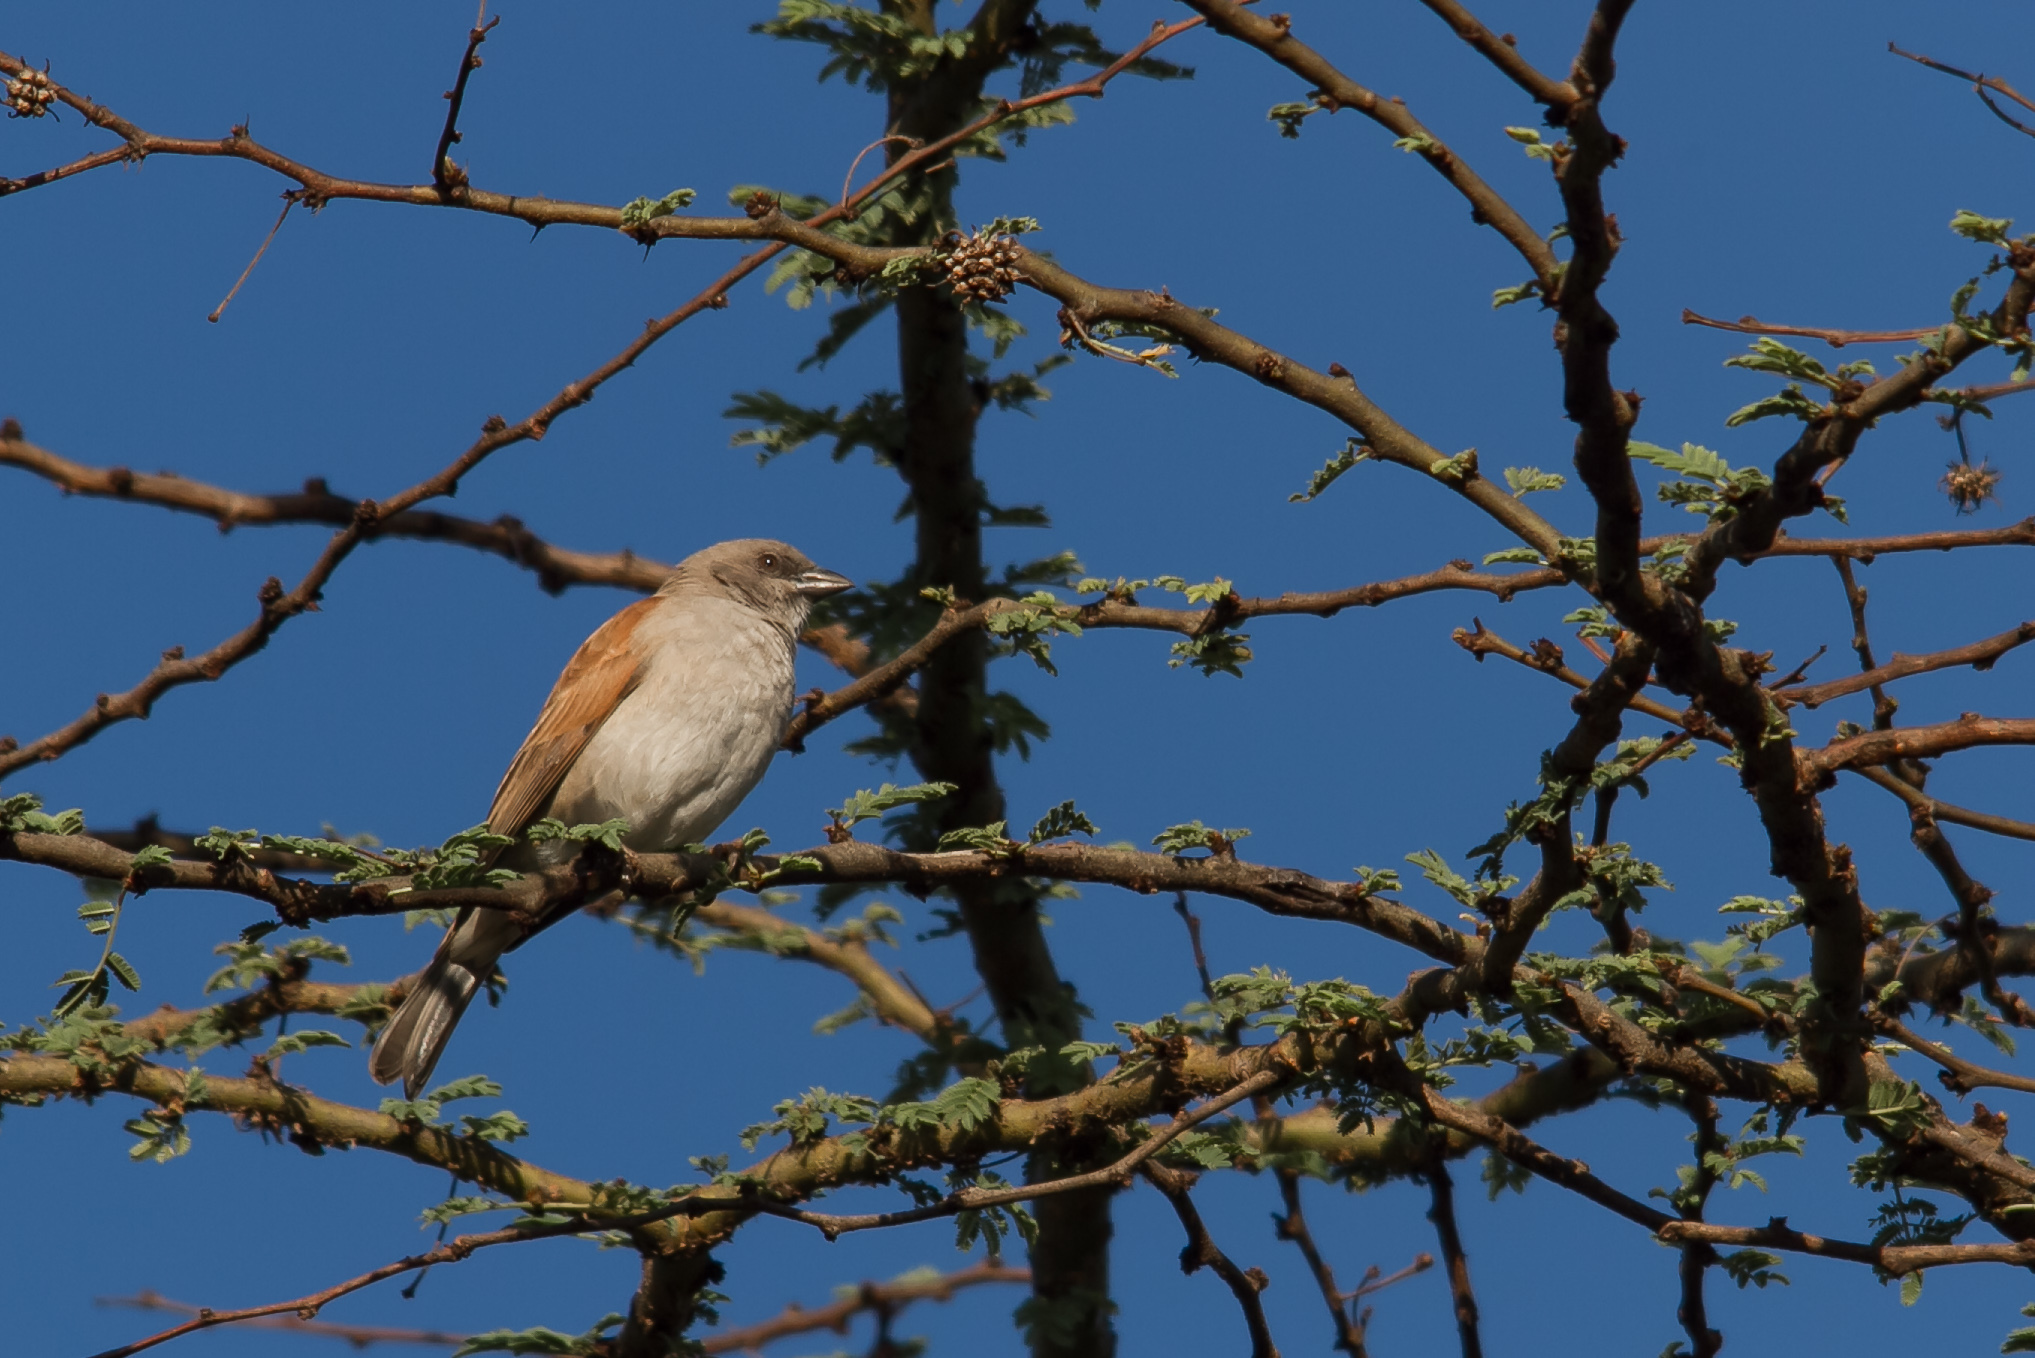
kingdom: Animalia
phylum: Chordata
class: Aves
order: Passeriformes
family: Passeridae
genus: Passer
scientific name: Passer griseus
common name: Northern grey-headed sparrow
